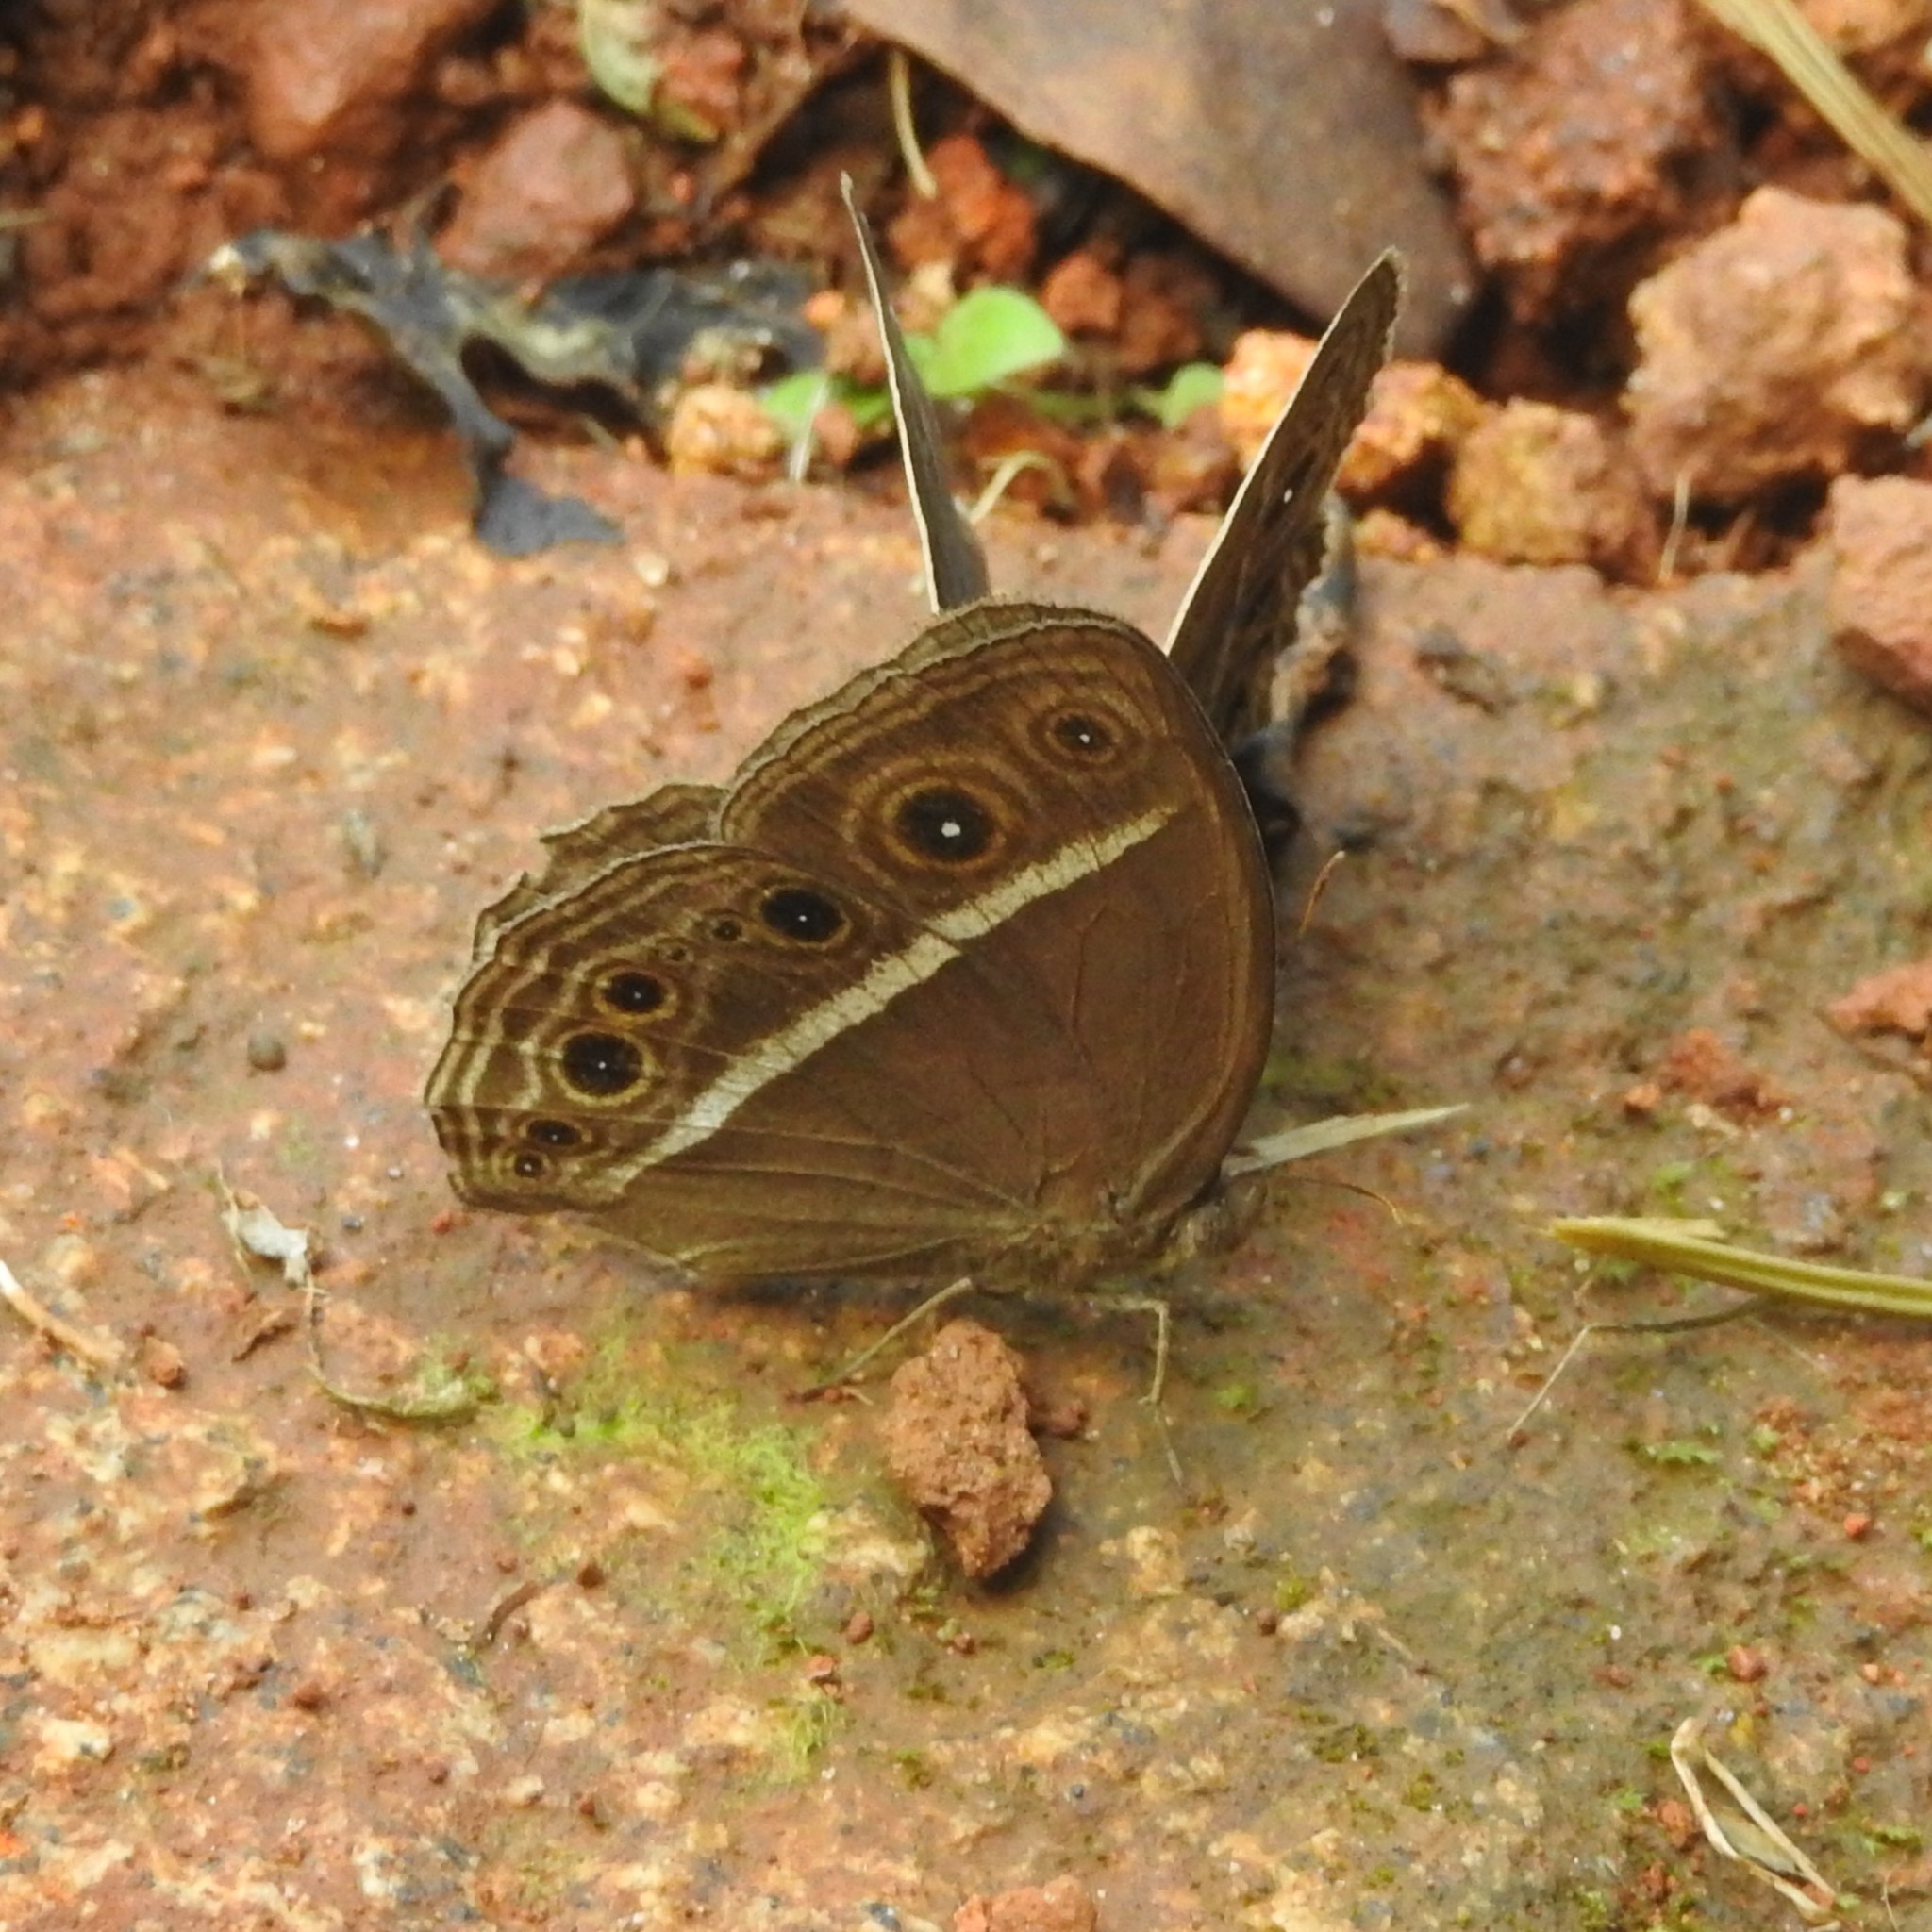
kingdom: Animalia
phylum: Arthropoda
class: Insecta
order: Lepidoptera
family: Nymphalidae
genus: Mycalesis
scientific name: Mycalesis mineus
